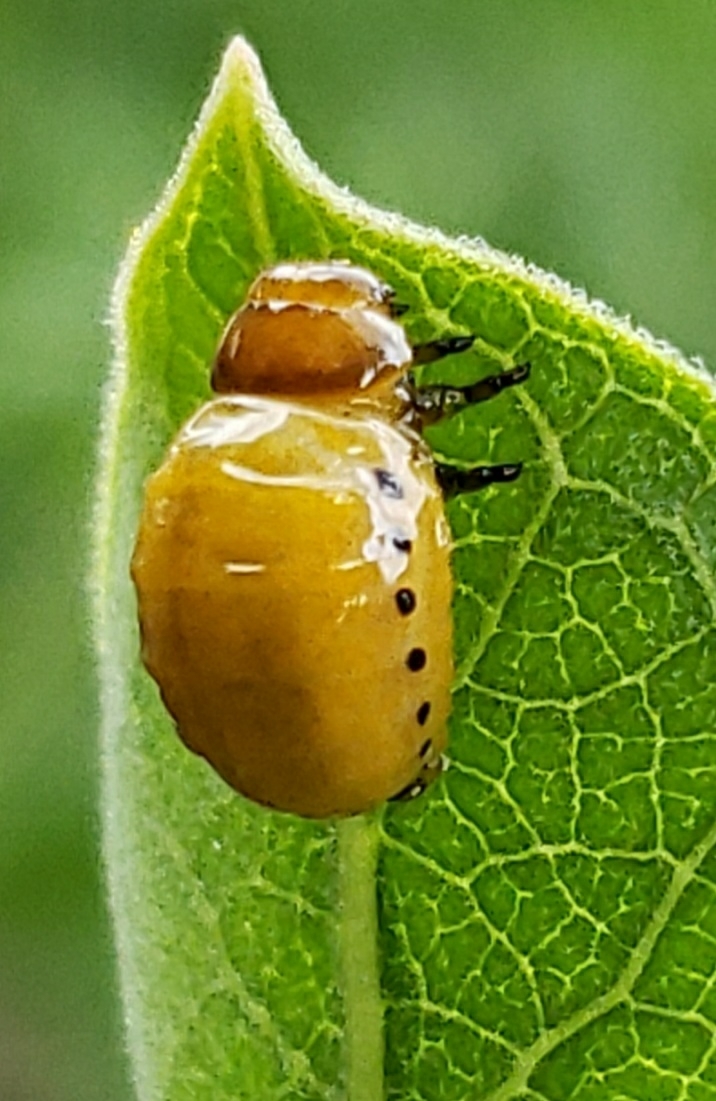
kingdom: Animalia
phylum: Arthropoda
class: Insecta
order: Coleoptera
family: Chrysomelidae
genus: Labidomera
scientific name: Labidomera clivicollis
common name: Swamp milkweed leaf beetle
